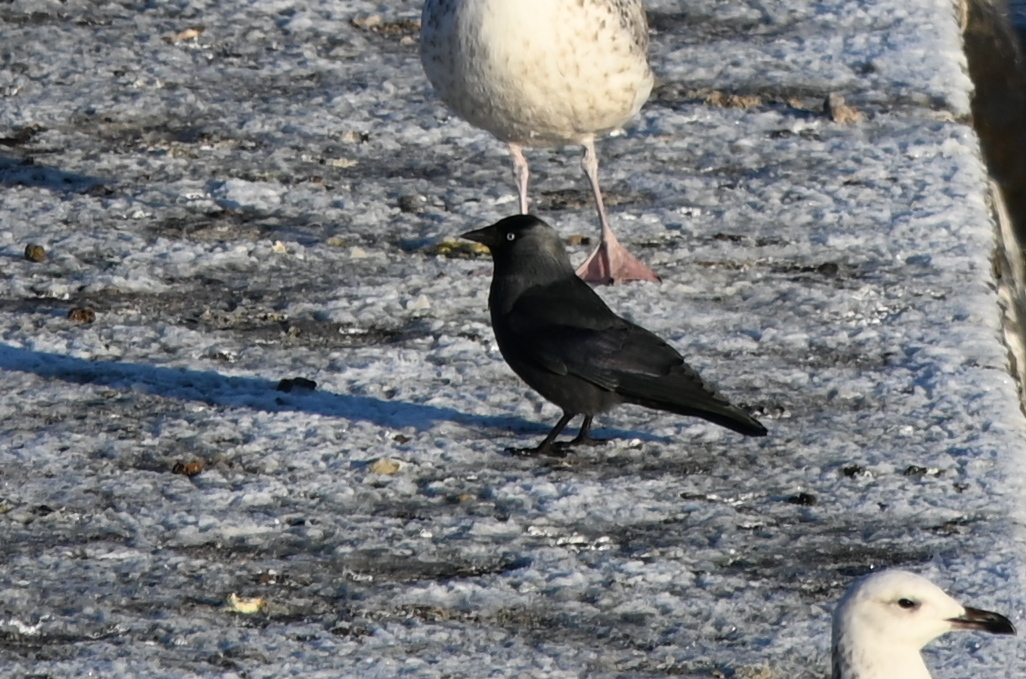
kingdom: Animalia
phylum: Chordata
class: Aves
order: Passeriformes
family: Corvidae
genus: Coloeus
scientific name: Coloeus monedula
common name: Western jackdaw
